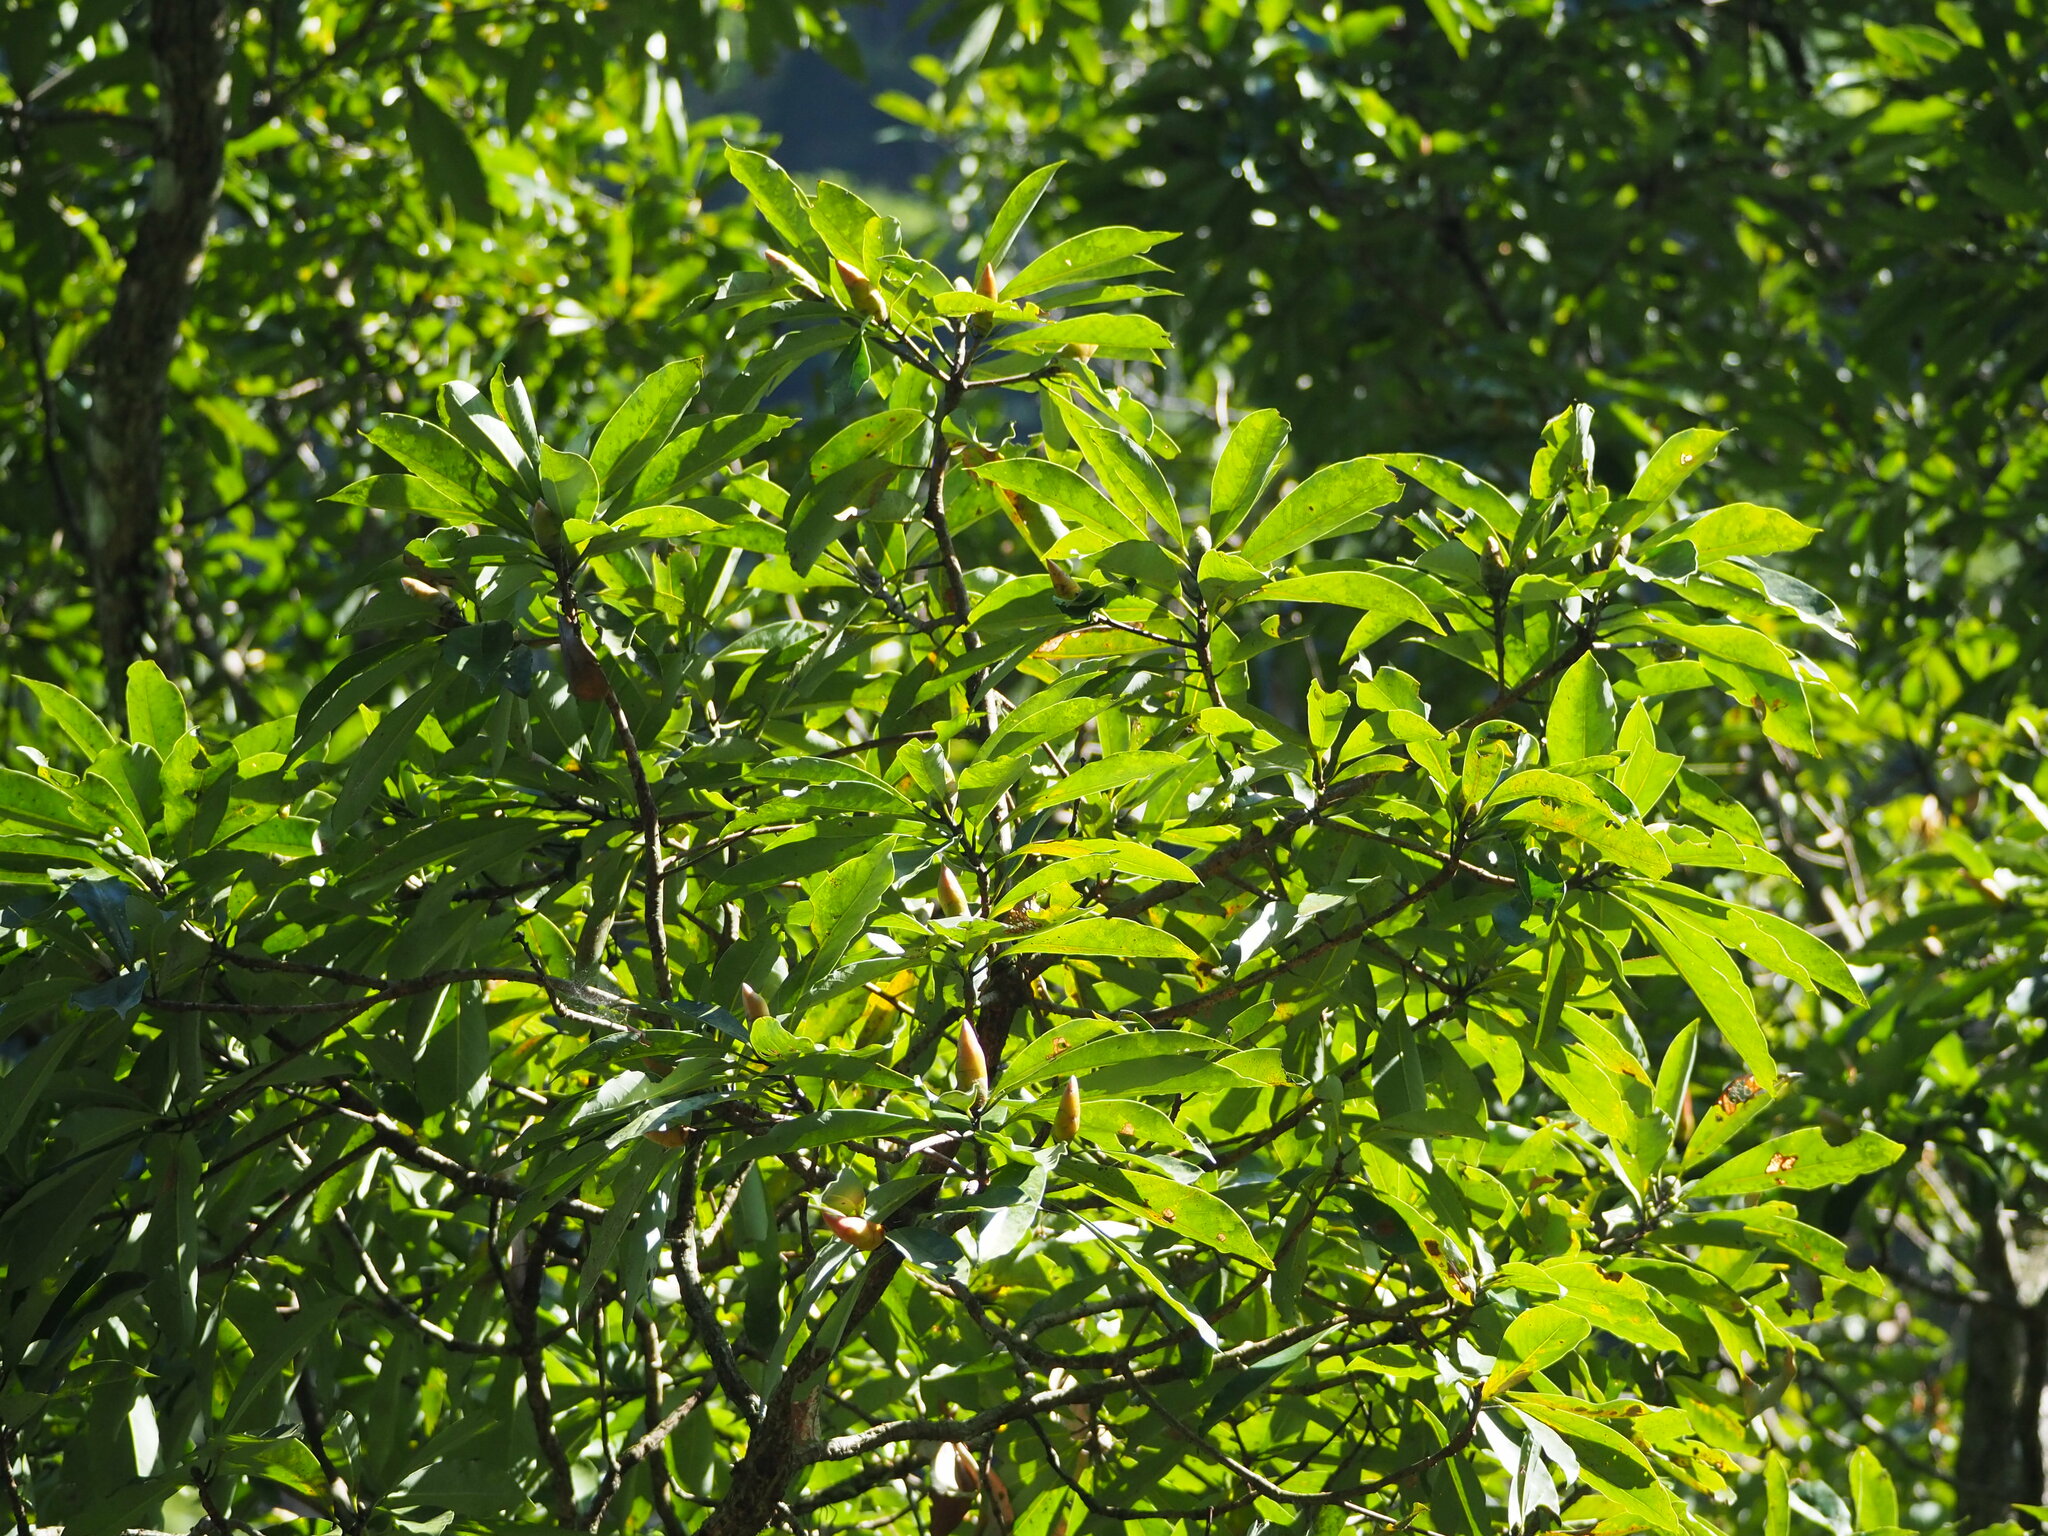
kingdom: Plantae
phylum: Tracheophyta
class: Magnoliopsida
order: Laurales
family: Lauraceae
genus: Machilus
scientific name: Machilus japonica
